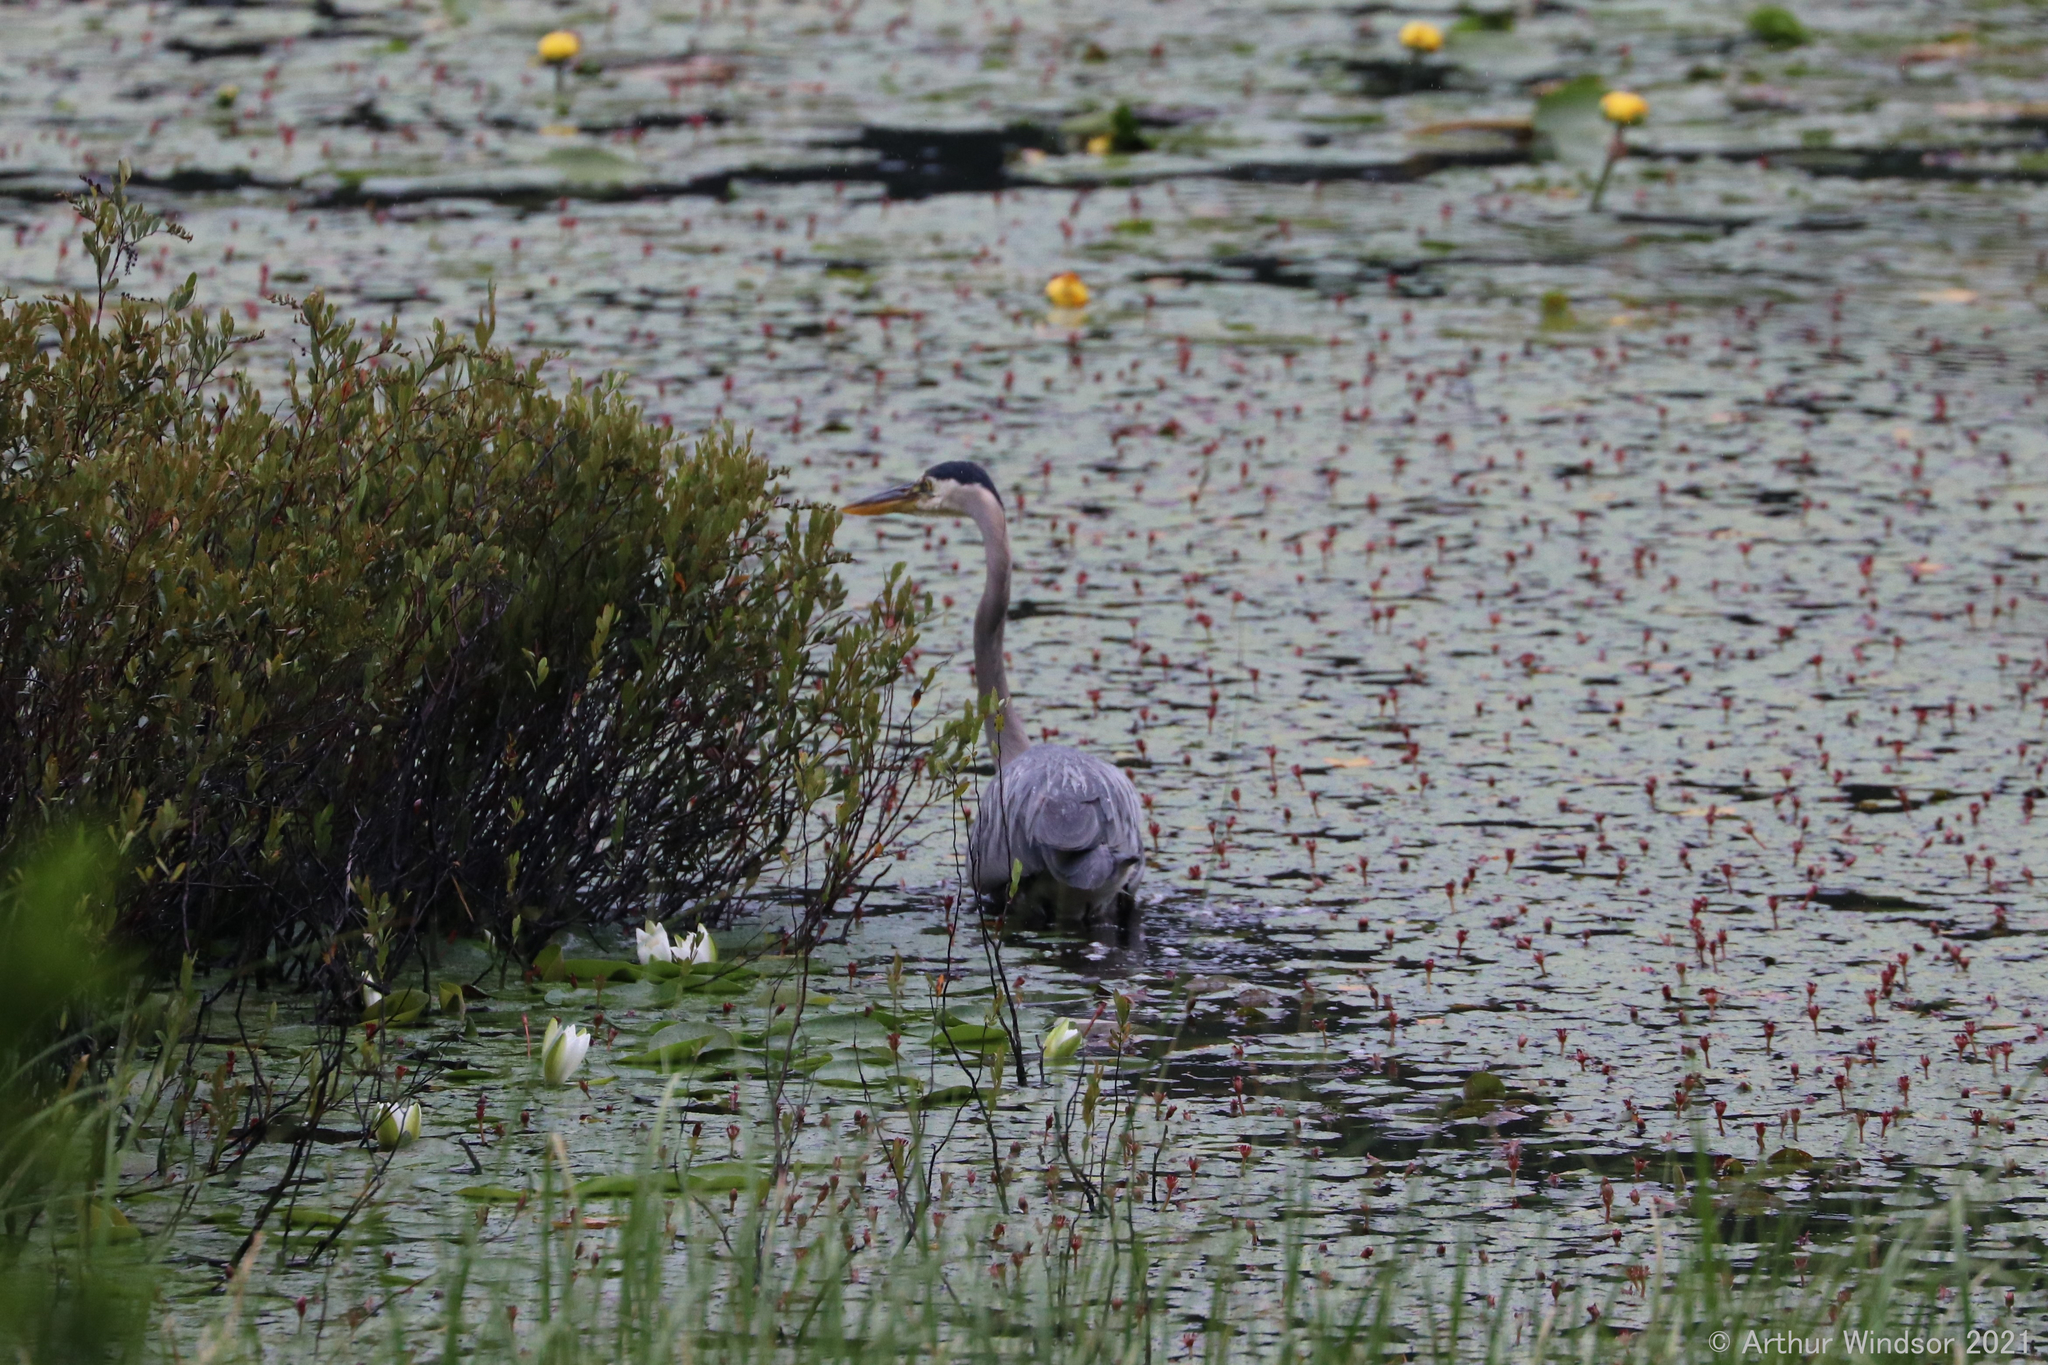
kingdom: Animalia
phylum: Chordata
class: Aves
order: Pelecaniformes
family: Ardeidae
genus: Ardea
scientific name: Ardea herodias
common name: Great blue heron
